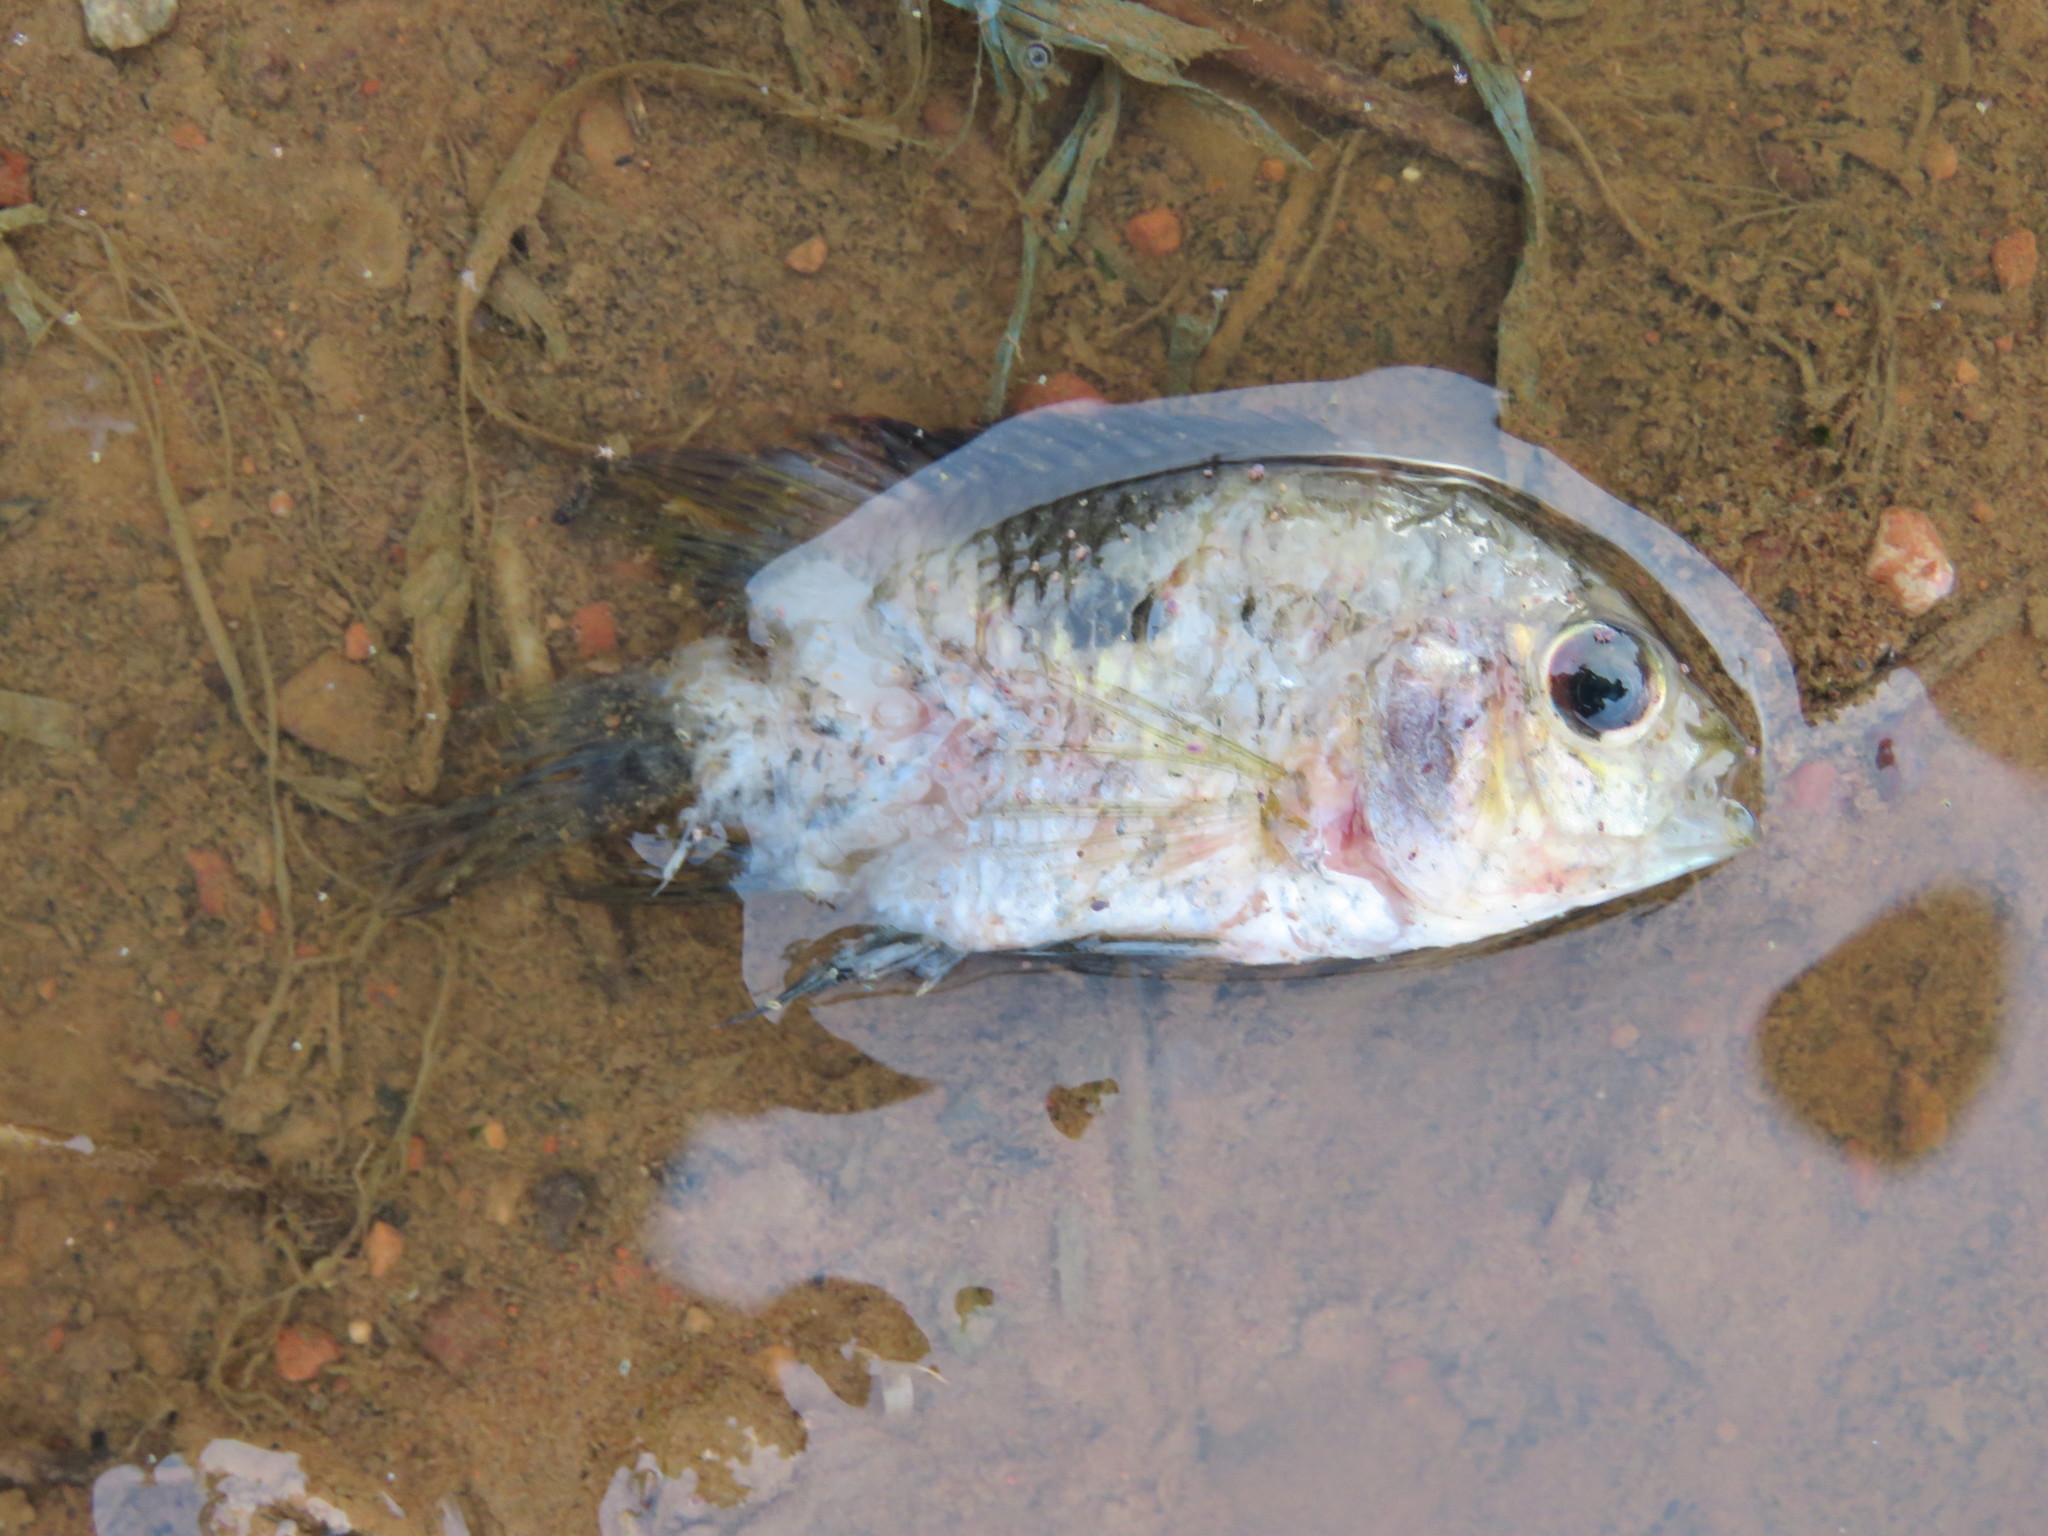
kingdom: Animalia
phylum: Chordata
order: Perciformes
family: Cichlidae
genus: Cichlasoma
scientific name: Cichlasoma amazonarum
